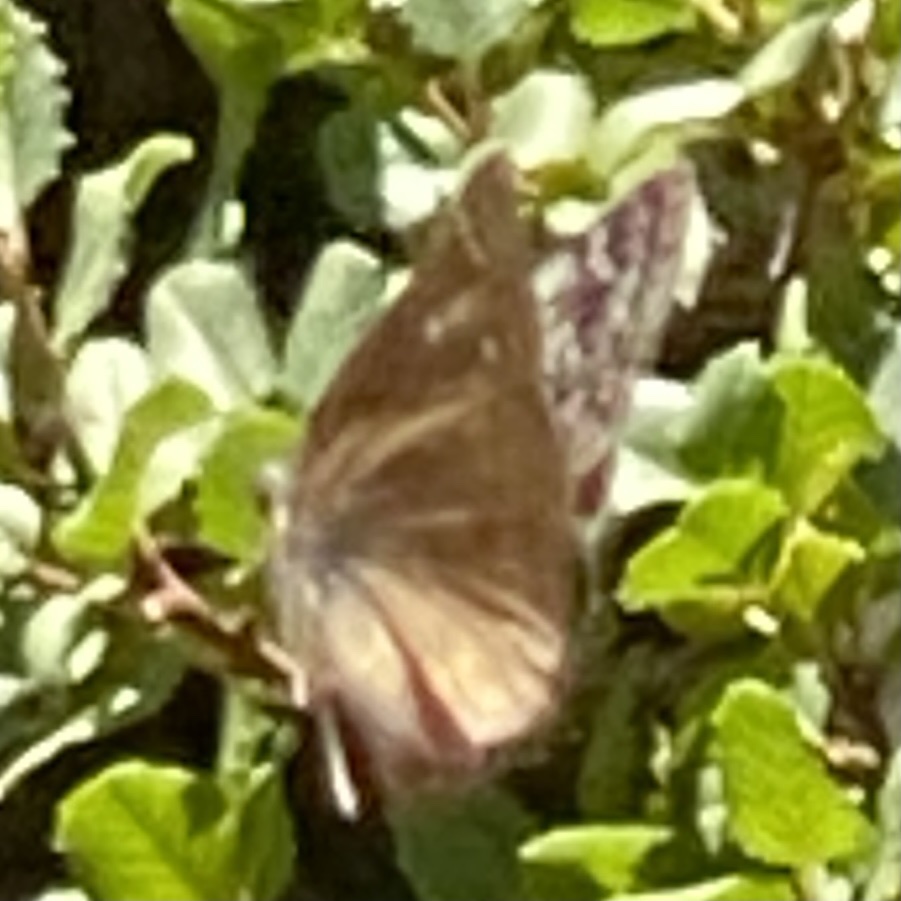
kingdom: Animalia
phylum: Arthropoda
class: Insecta
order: Lepidoptera
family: Hesperiidae
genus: Erynnis
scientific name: Erynnis propertius
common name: Propertius duskywing
